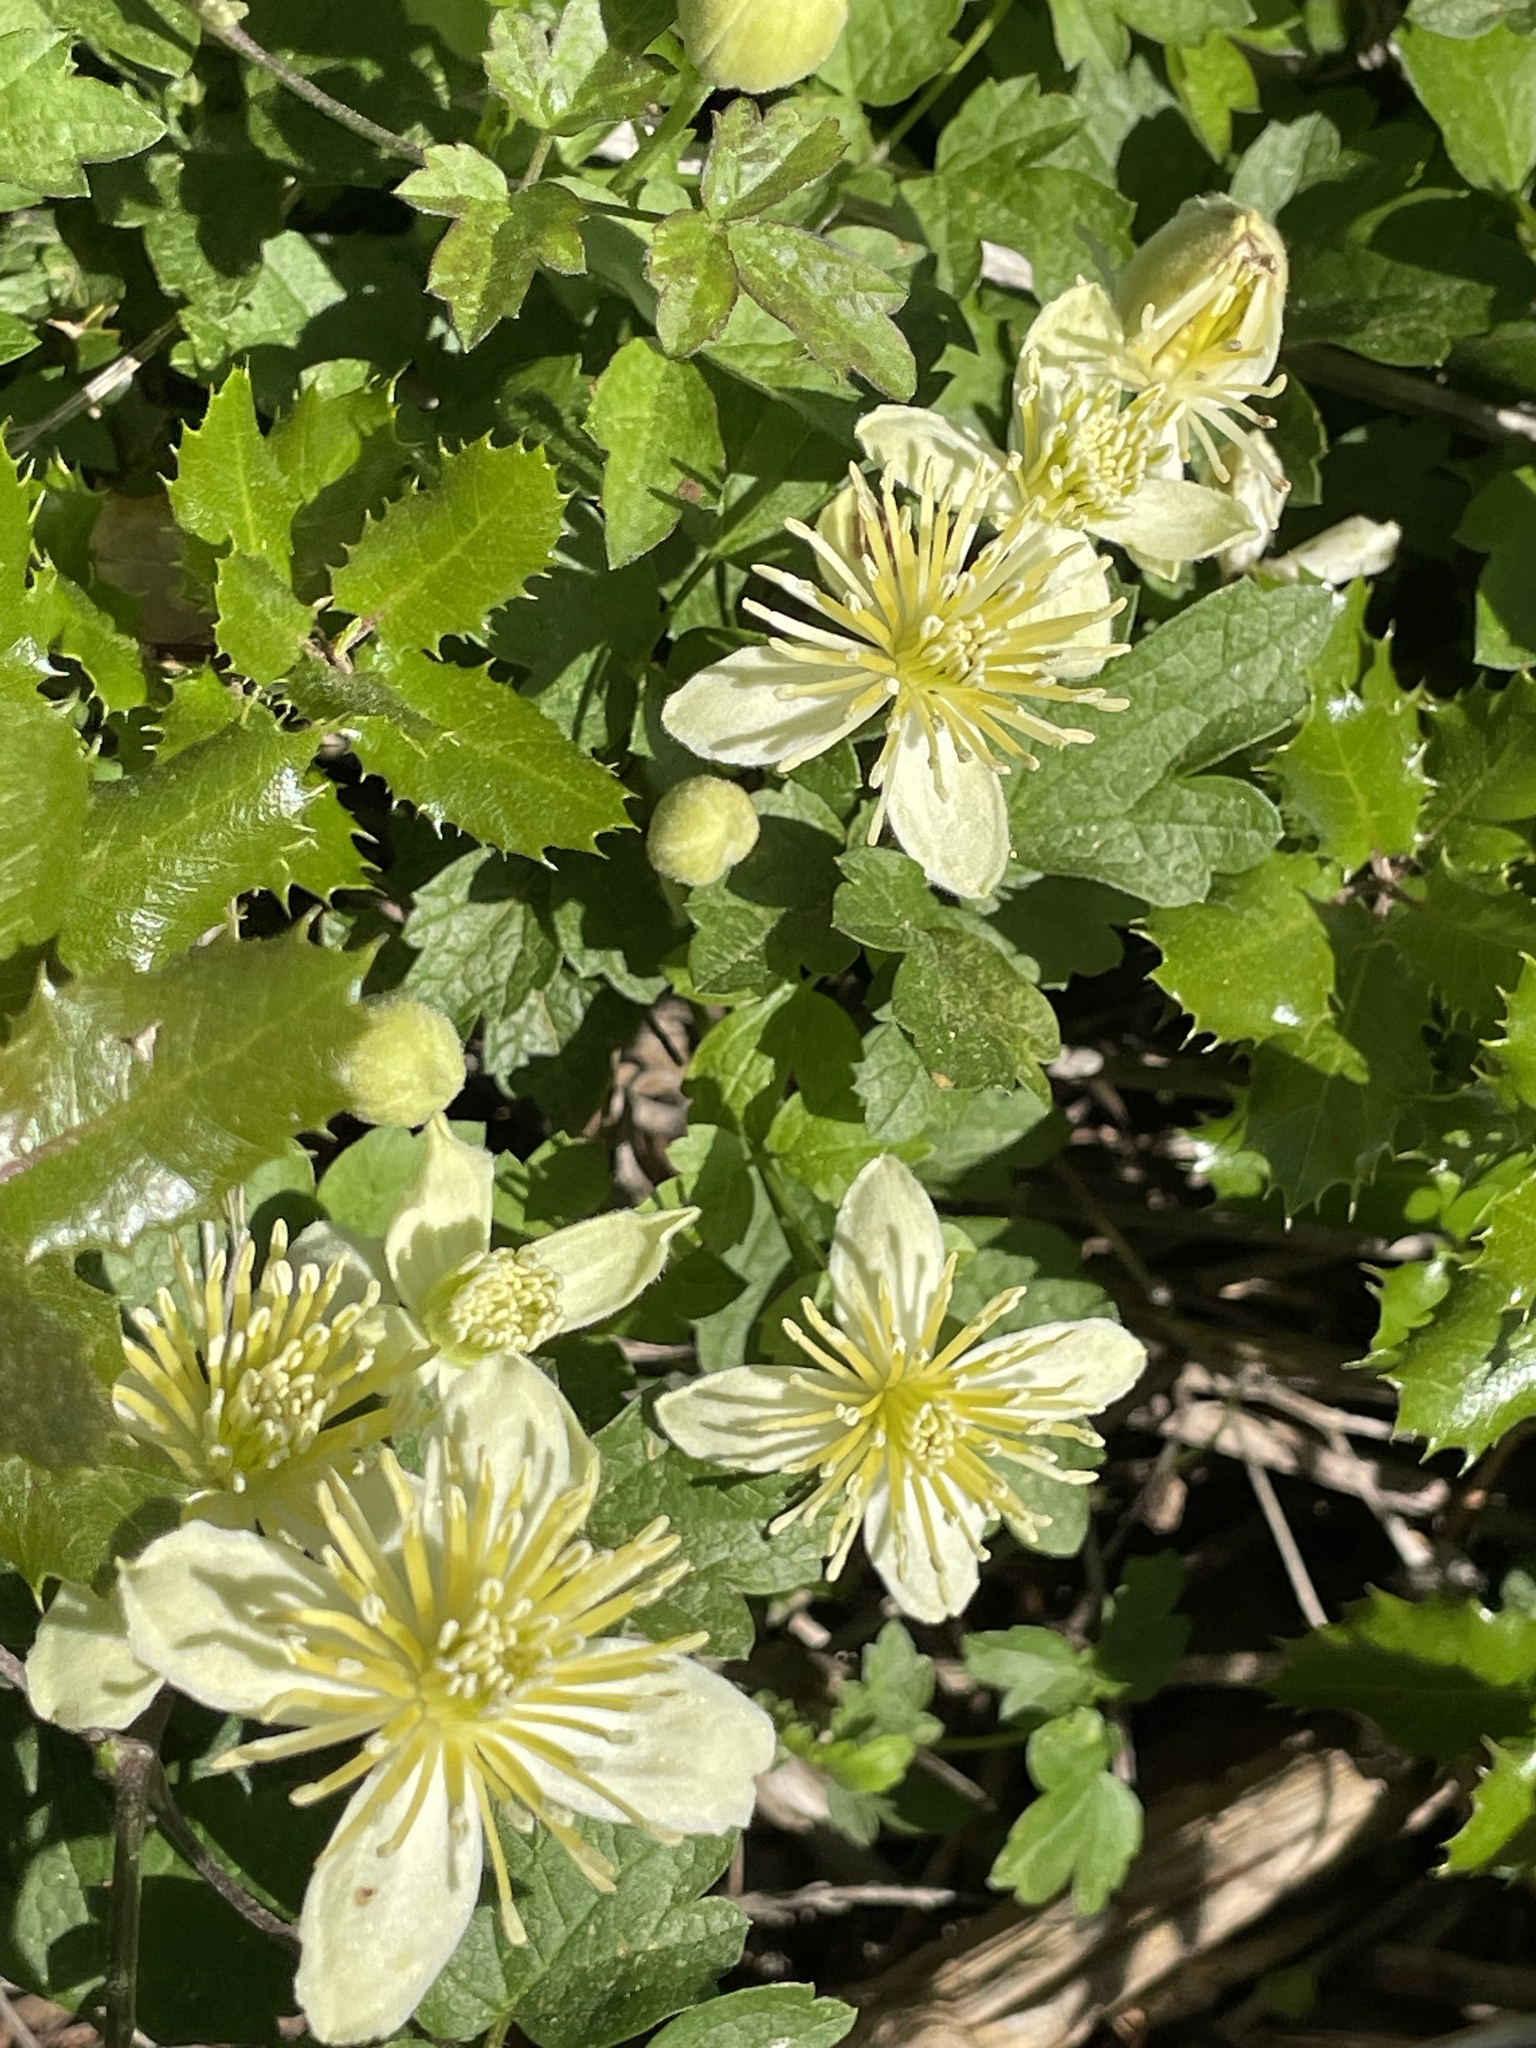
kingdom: Plantae
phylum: Tracheophyta
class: Magnoliopsida
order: Ranunculales
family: Ranunculaceae
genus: Clematis
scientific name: Clematis lasiantha
